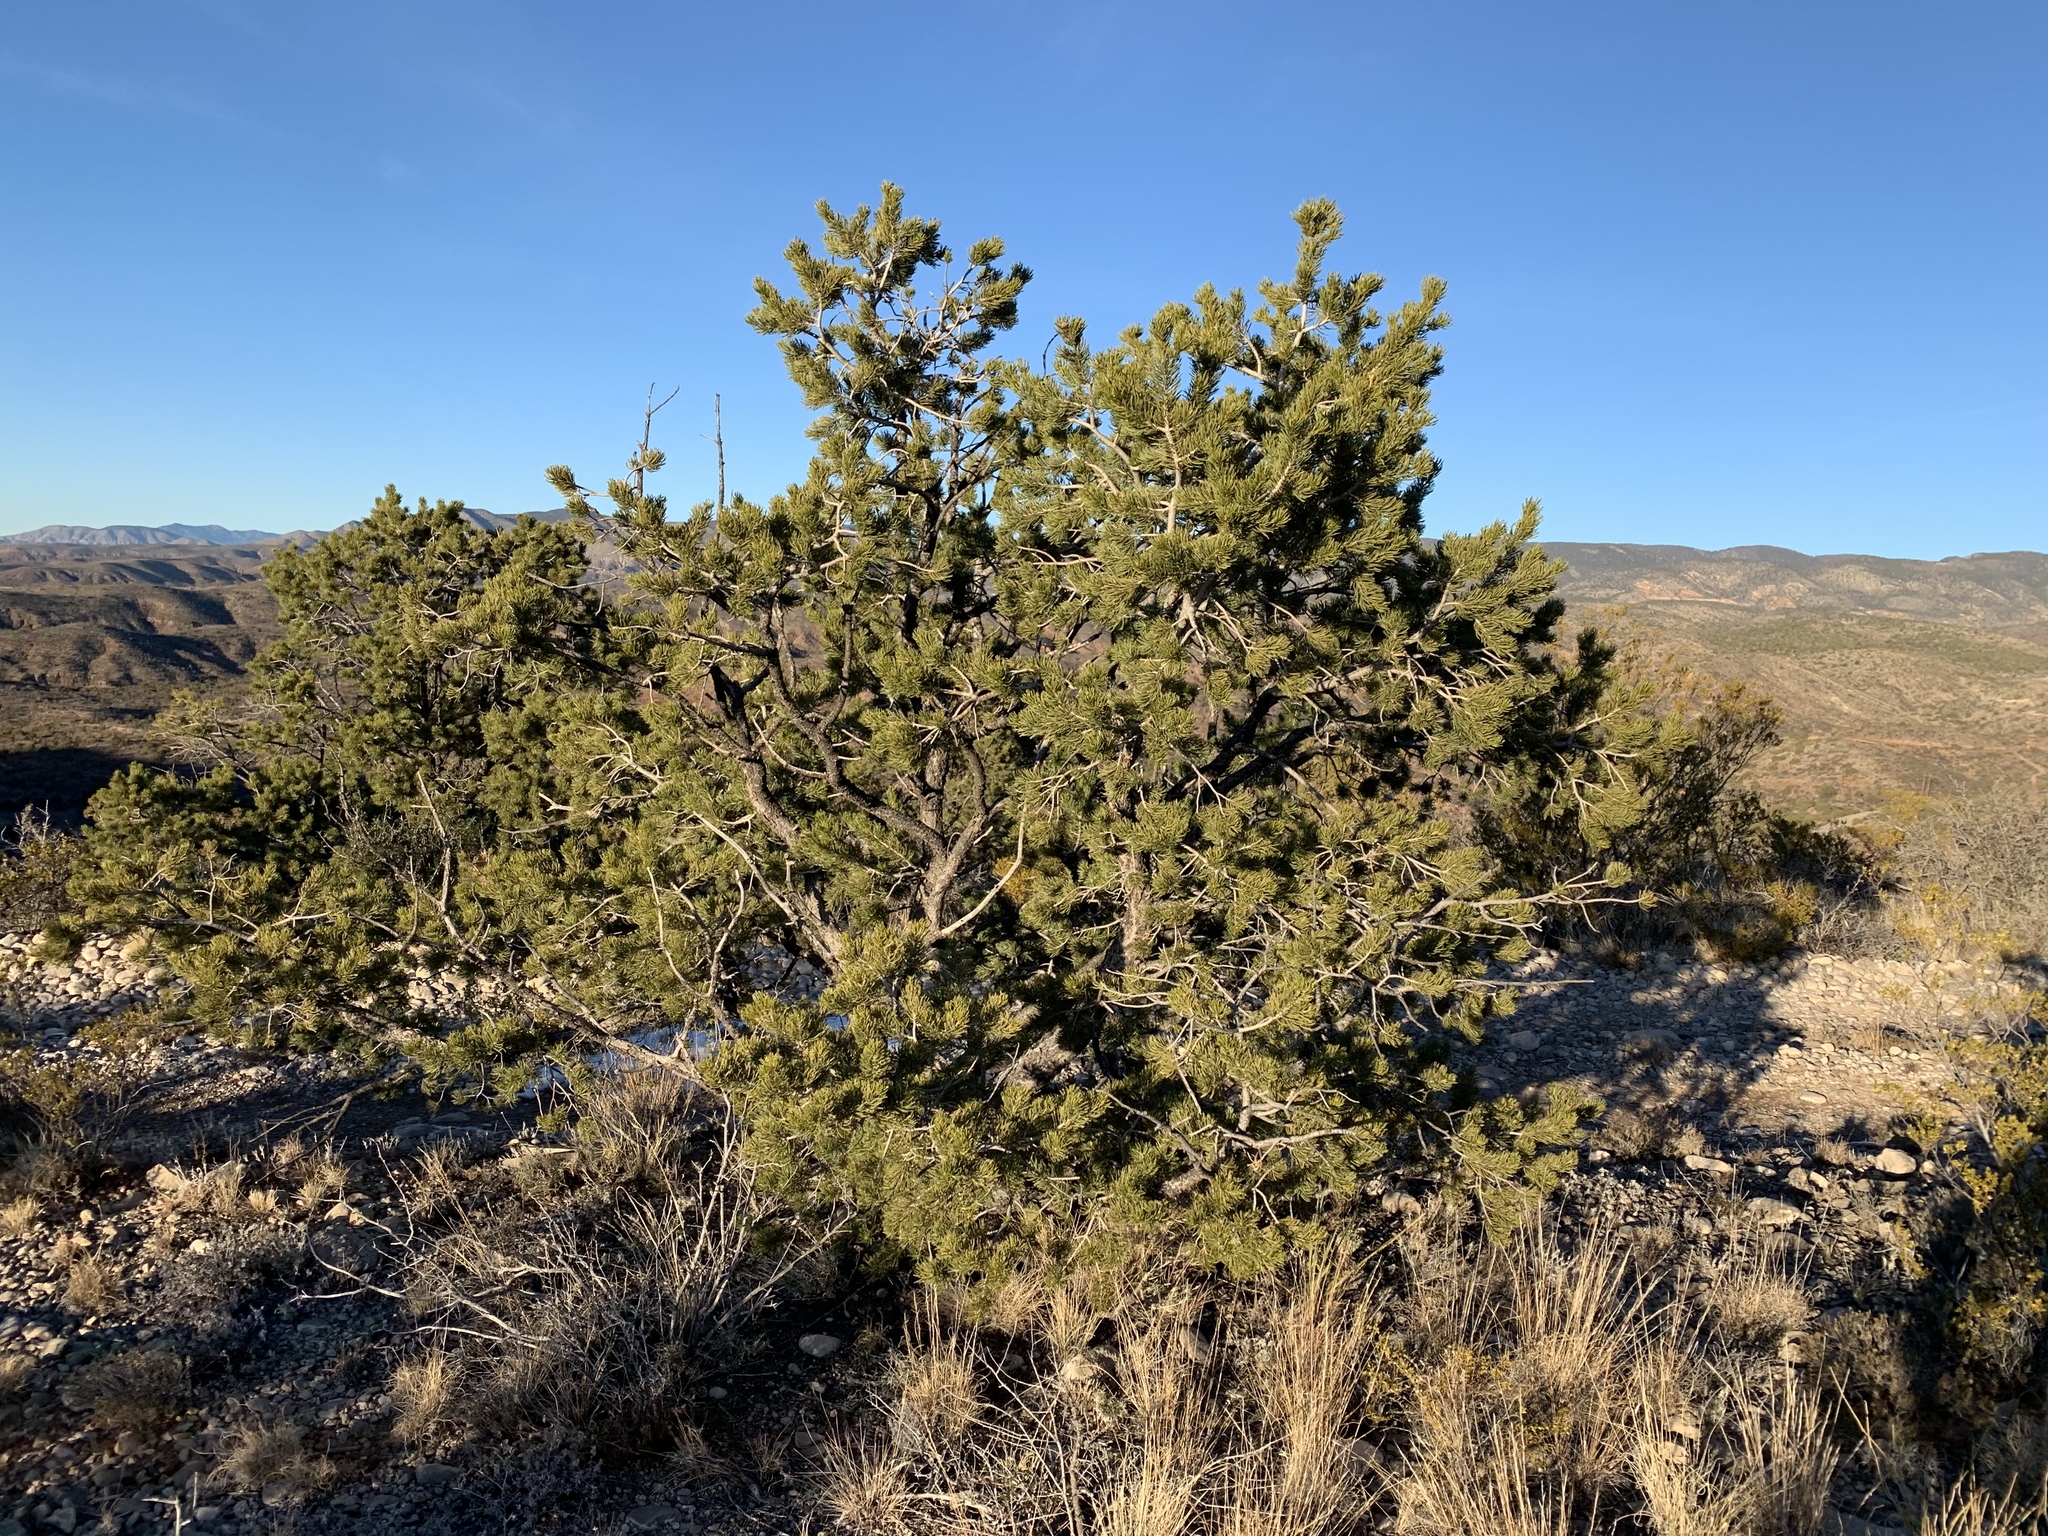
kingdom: Plantae
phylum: Tracheophyta
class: Pinopsida
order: Pinales
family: Pinaceae
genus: Pinus
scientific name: Pinus edulis
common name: Colorado pinyon
